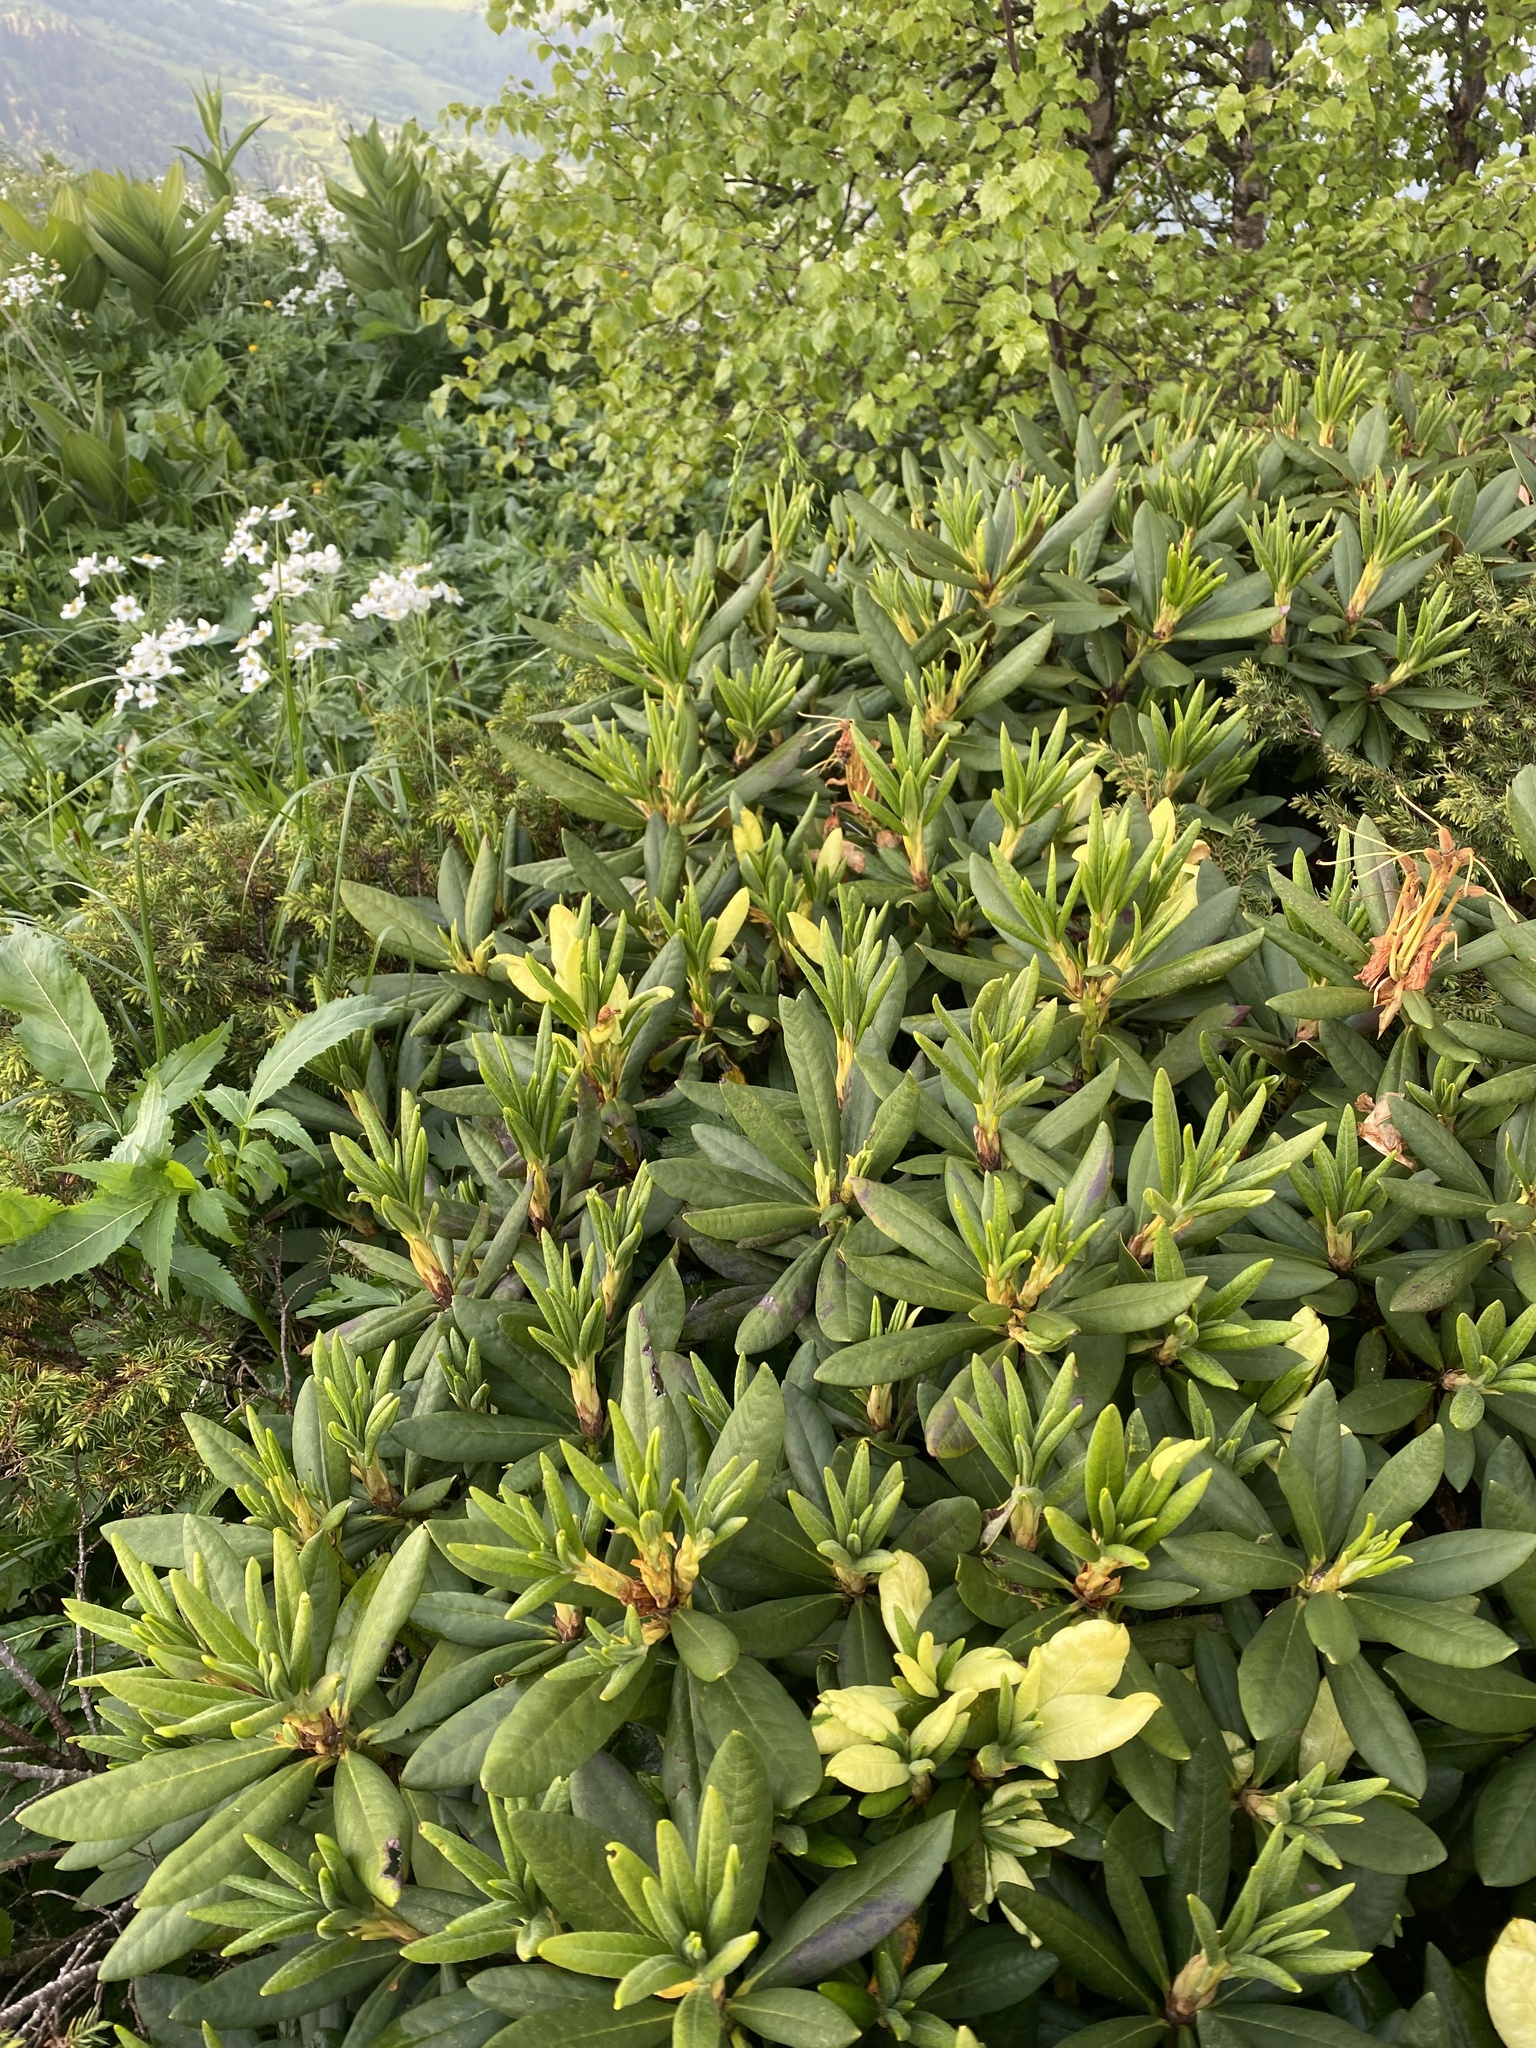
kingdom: Plantae
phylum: Tracheophyta
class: Magnoliopsida
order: Ericales
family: Ericaceae
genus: Rhododendron
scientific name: Rhododendron caucasicum
